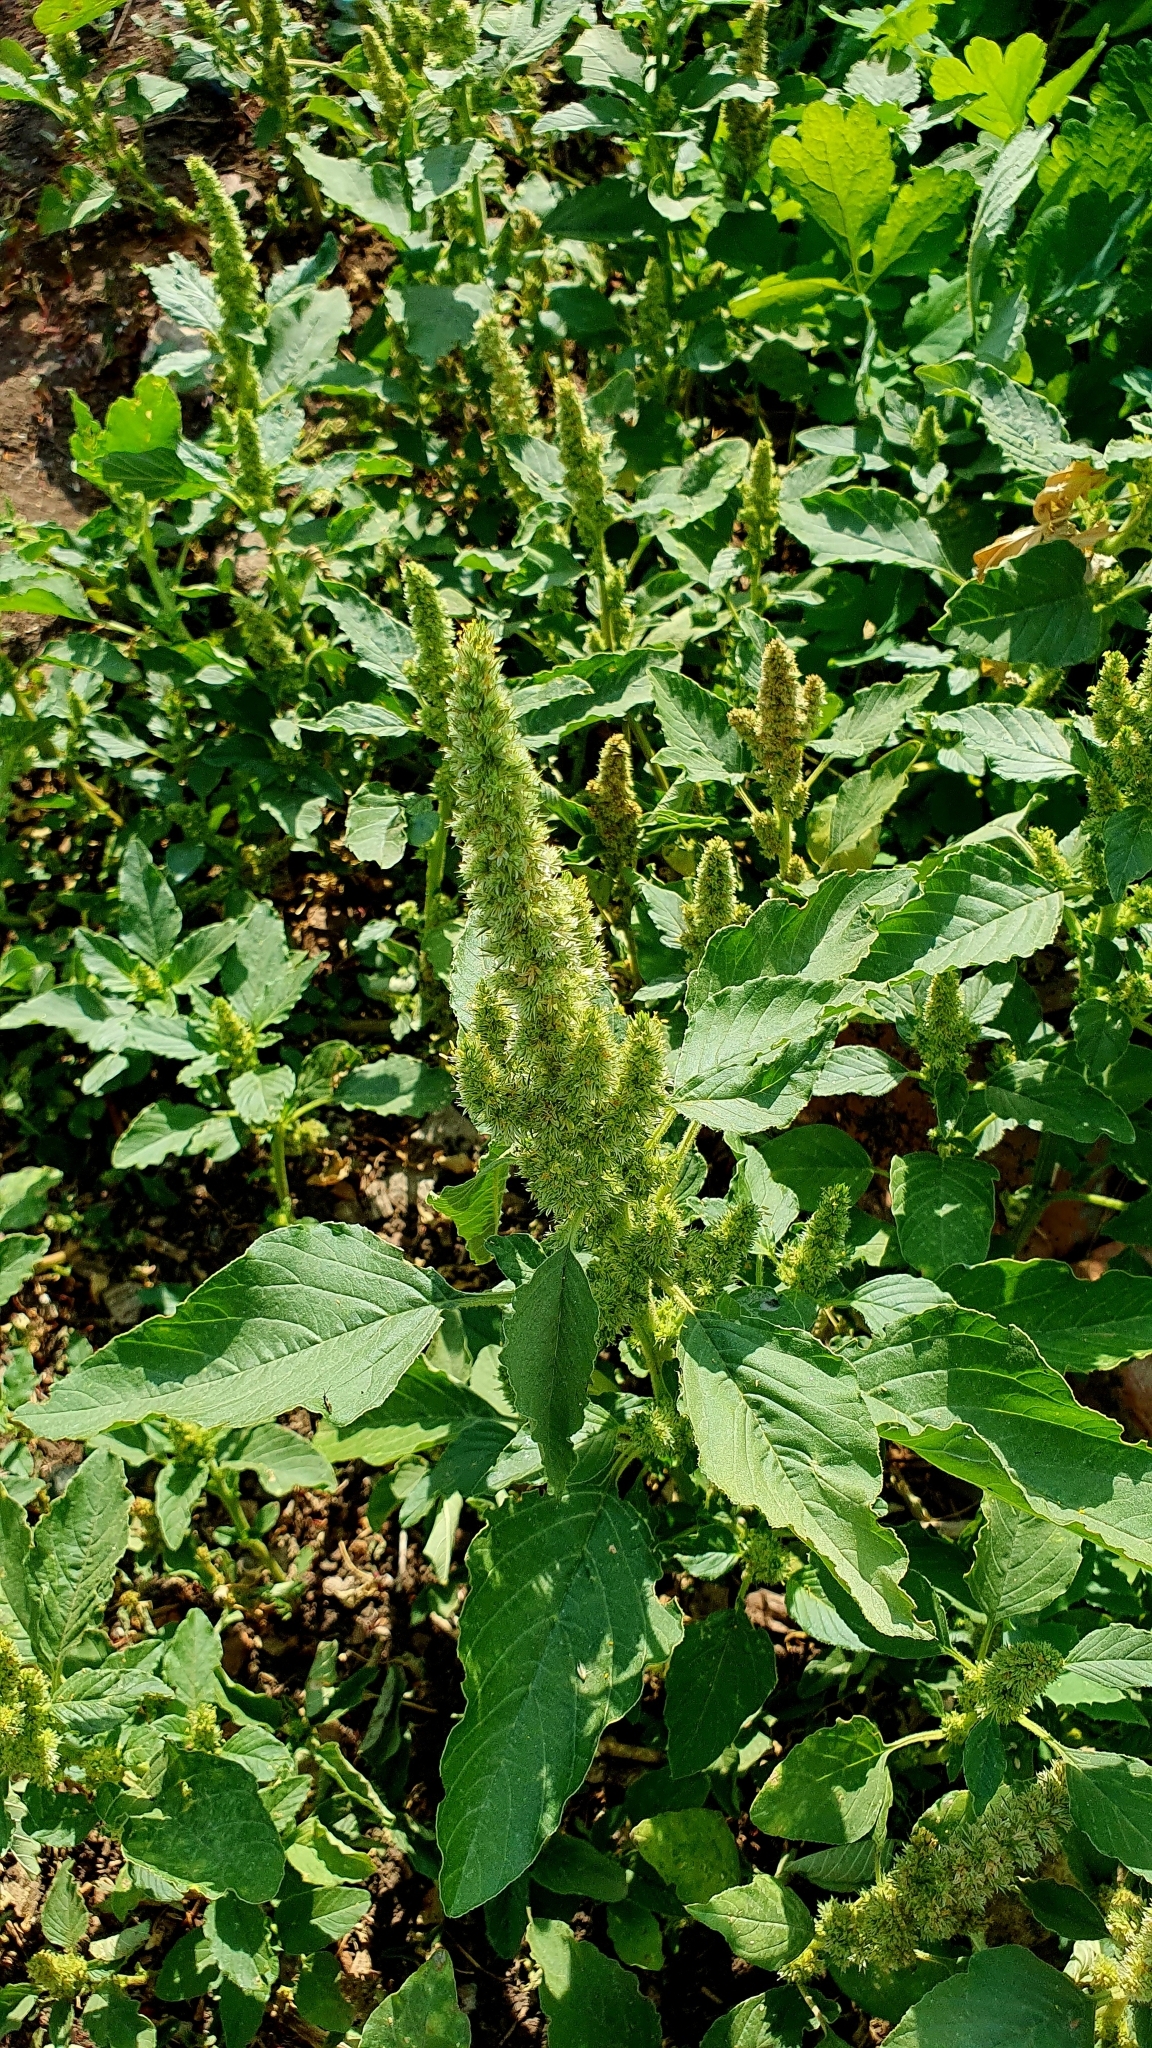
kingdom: Plantae
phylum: Tracheophyta
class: Magnoliopsida
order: Caryophyllales
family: Amaranthaceae
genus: Amaranthus
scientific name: Amaranthus retroflexus
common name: Redroot amaranth
